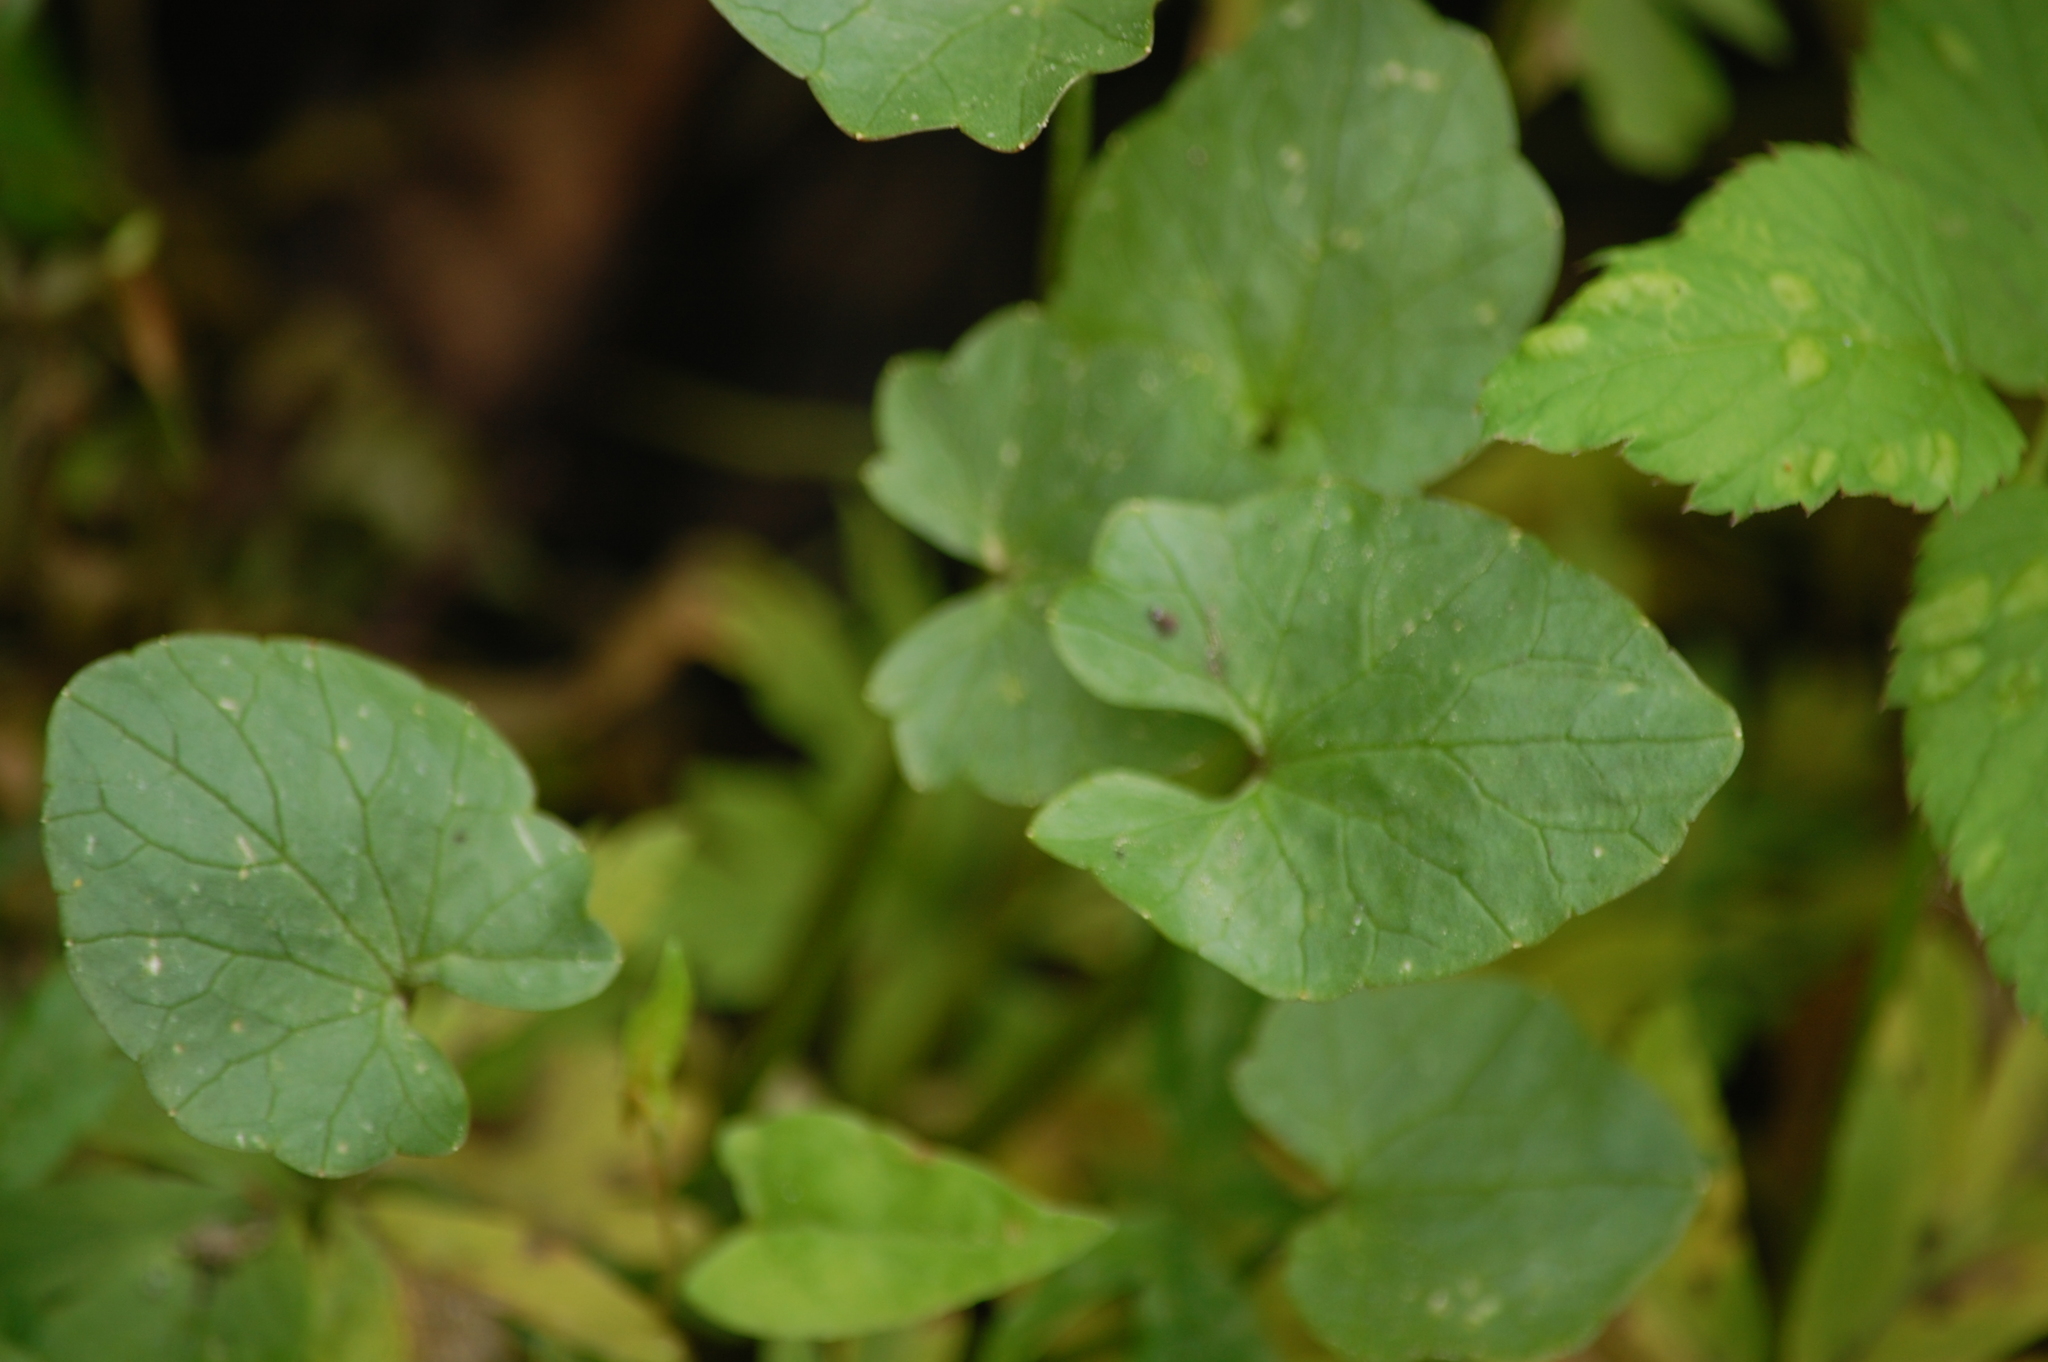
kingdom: Plantae
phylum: Tracheophyta
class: Magnoliopsida
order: Ranunculales
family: Ranunculaceae
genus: Ficaria
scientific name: Ficaria verna
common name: Lesser celandine
